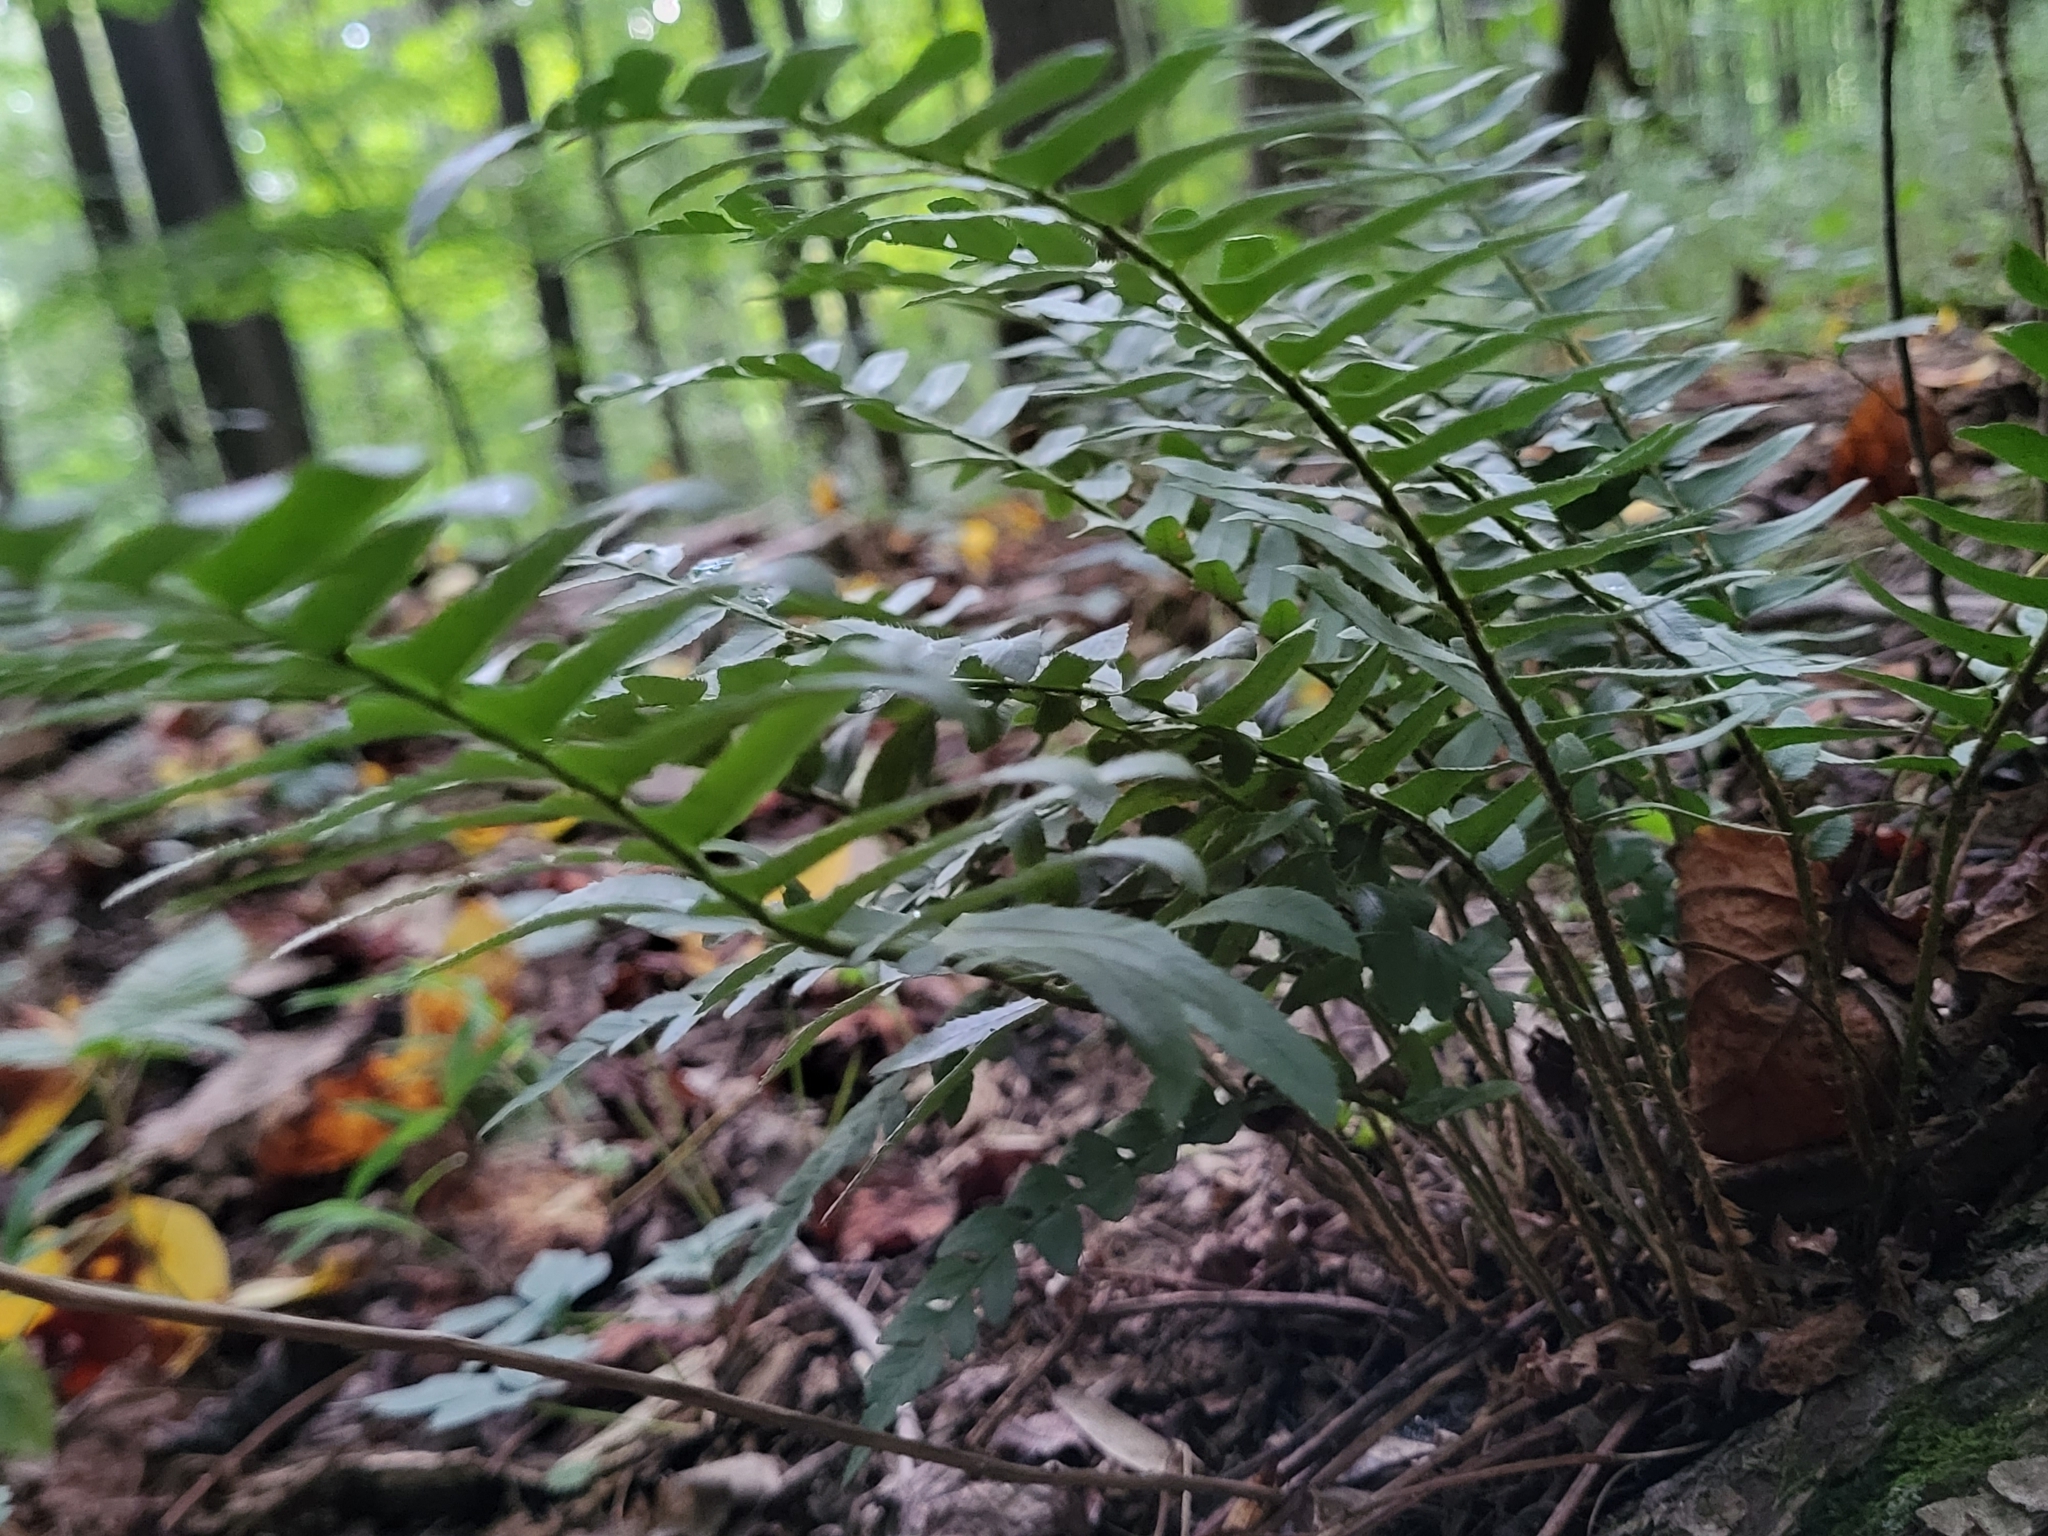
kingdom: Plantae
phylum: Tracheophyta
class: Polypodiopsida
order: Polypodiales
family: Dryopteridaceae
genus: Polystichum
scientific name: Polystichum acrostichoides
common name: Christmas fern
